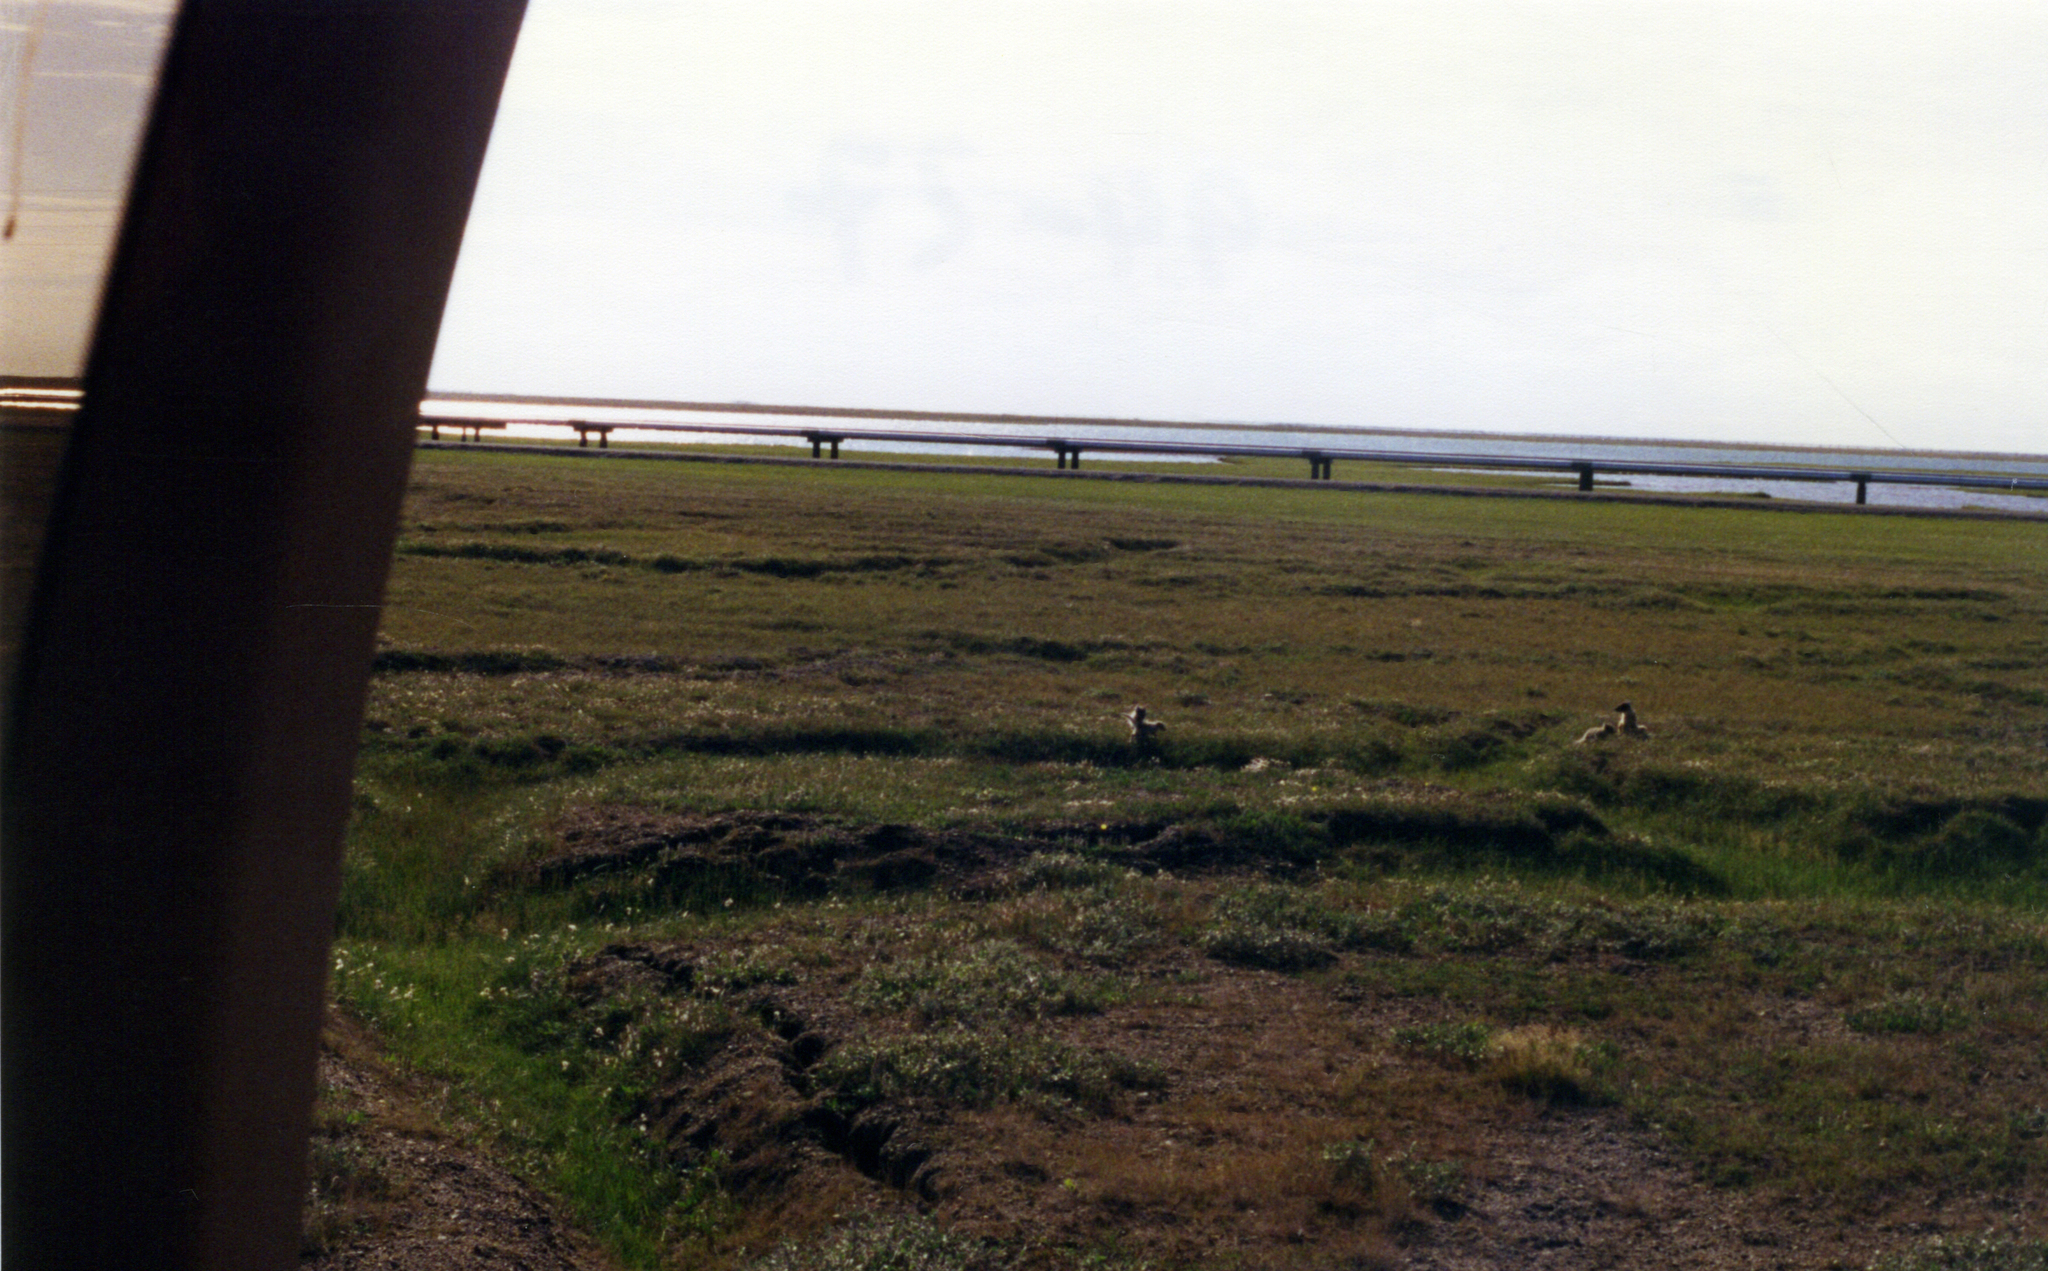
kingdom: Animalia
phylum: Chordata
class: Mammalia
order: Carnivora
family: Canidae
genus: Vulpes
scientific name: Vulpes lagopus
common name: Arctic fox
